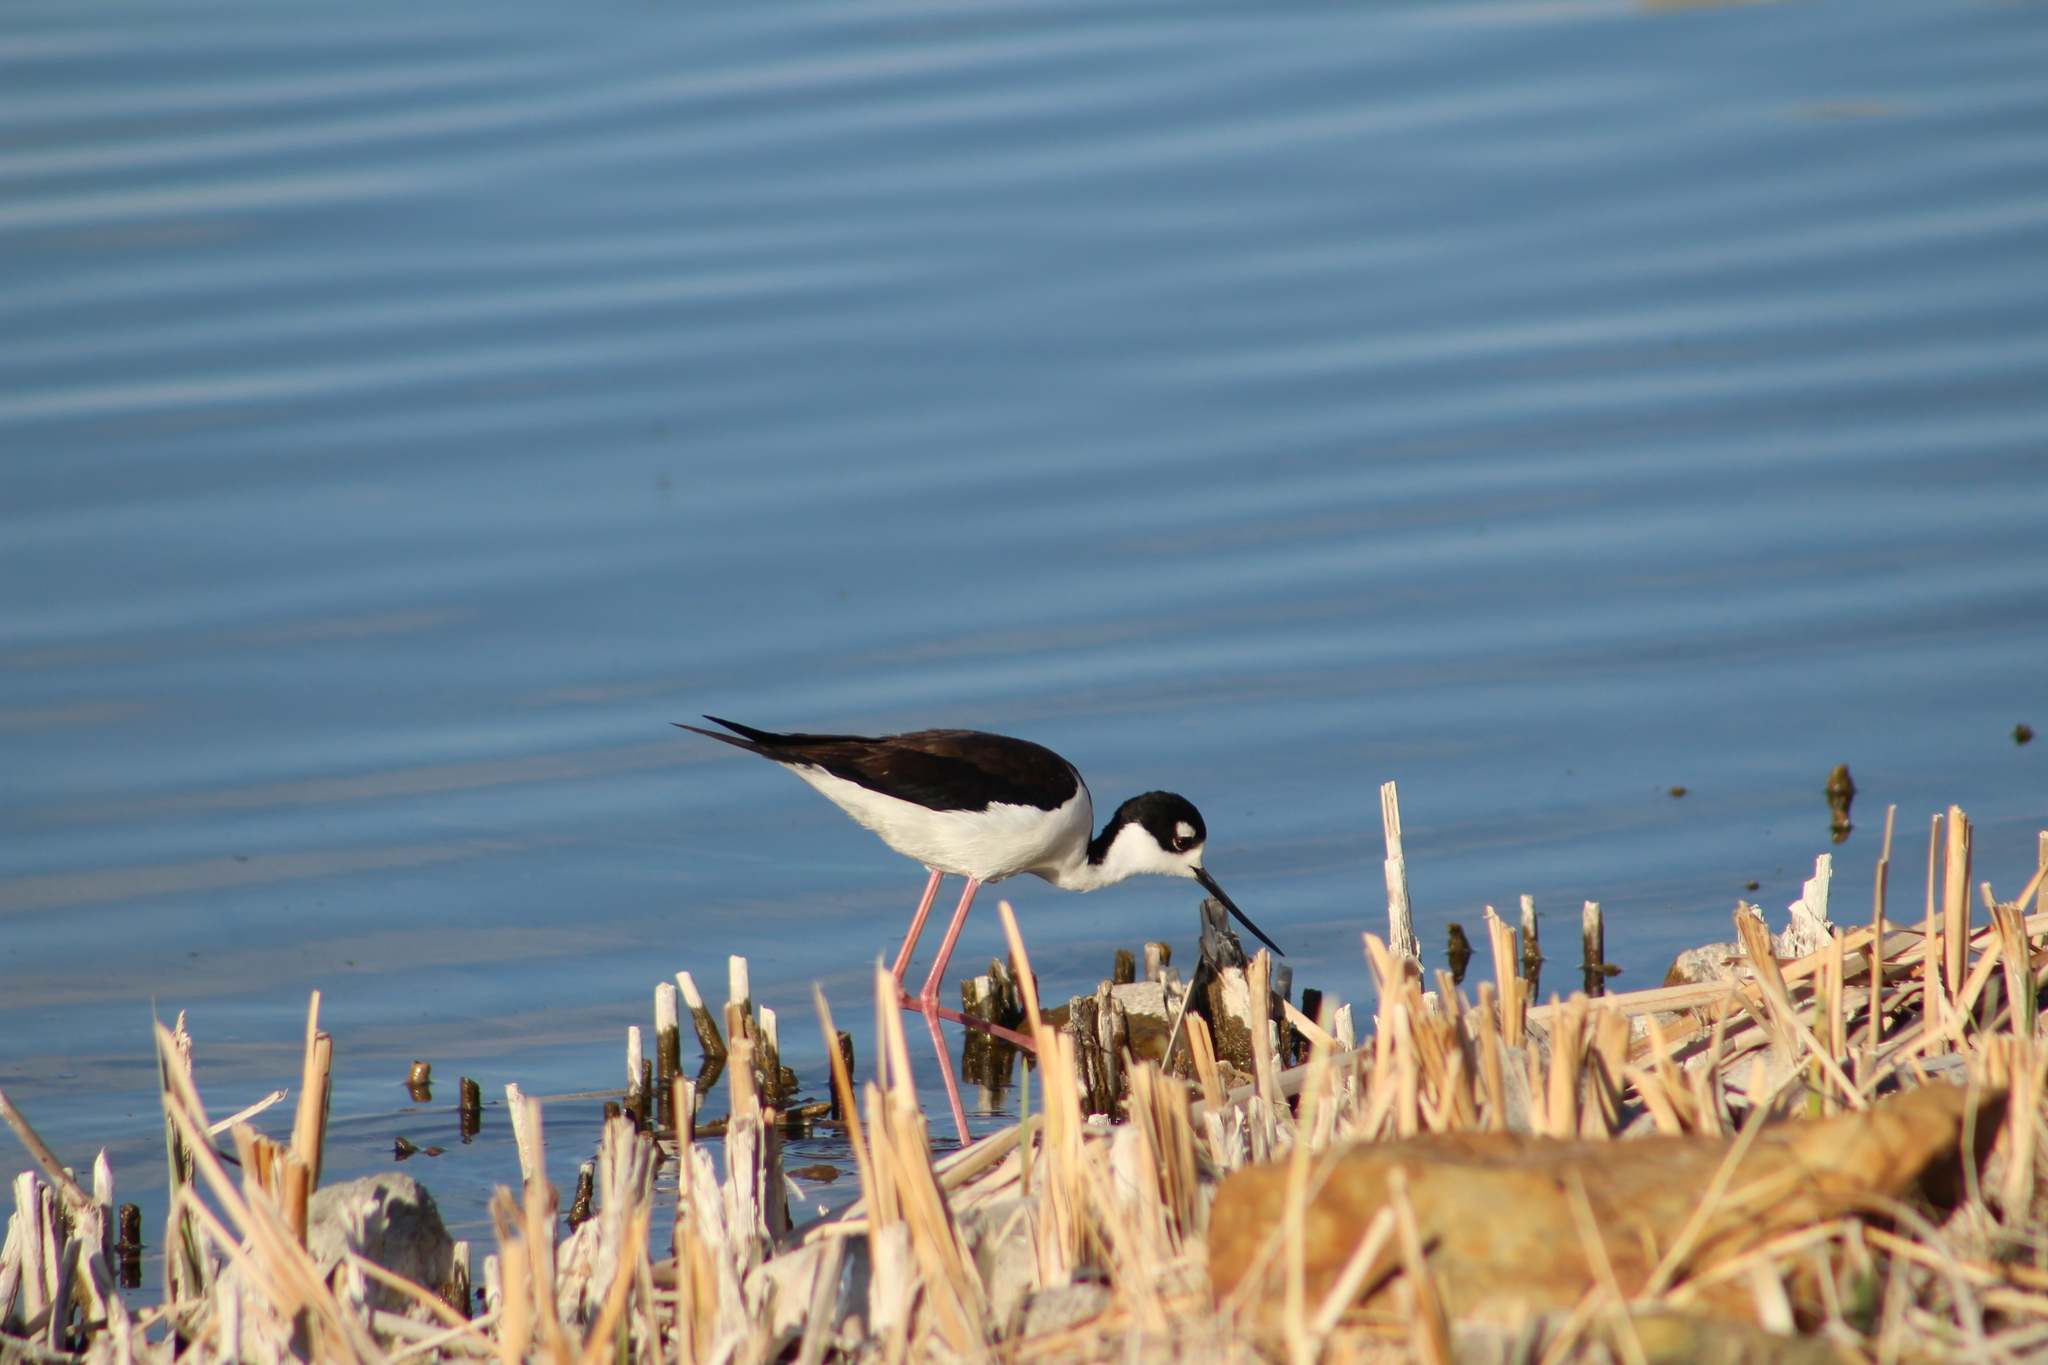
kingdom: Animalia
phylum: Chordata
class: Aves
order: Charadriiformes
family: Recurvirostridae
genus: Himantopus
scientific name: Himantopus mexicanus
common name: Black-necked stilt
